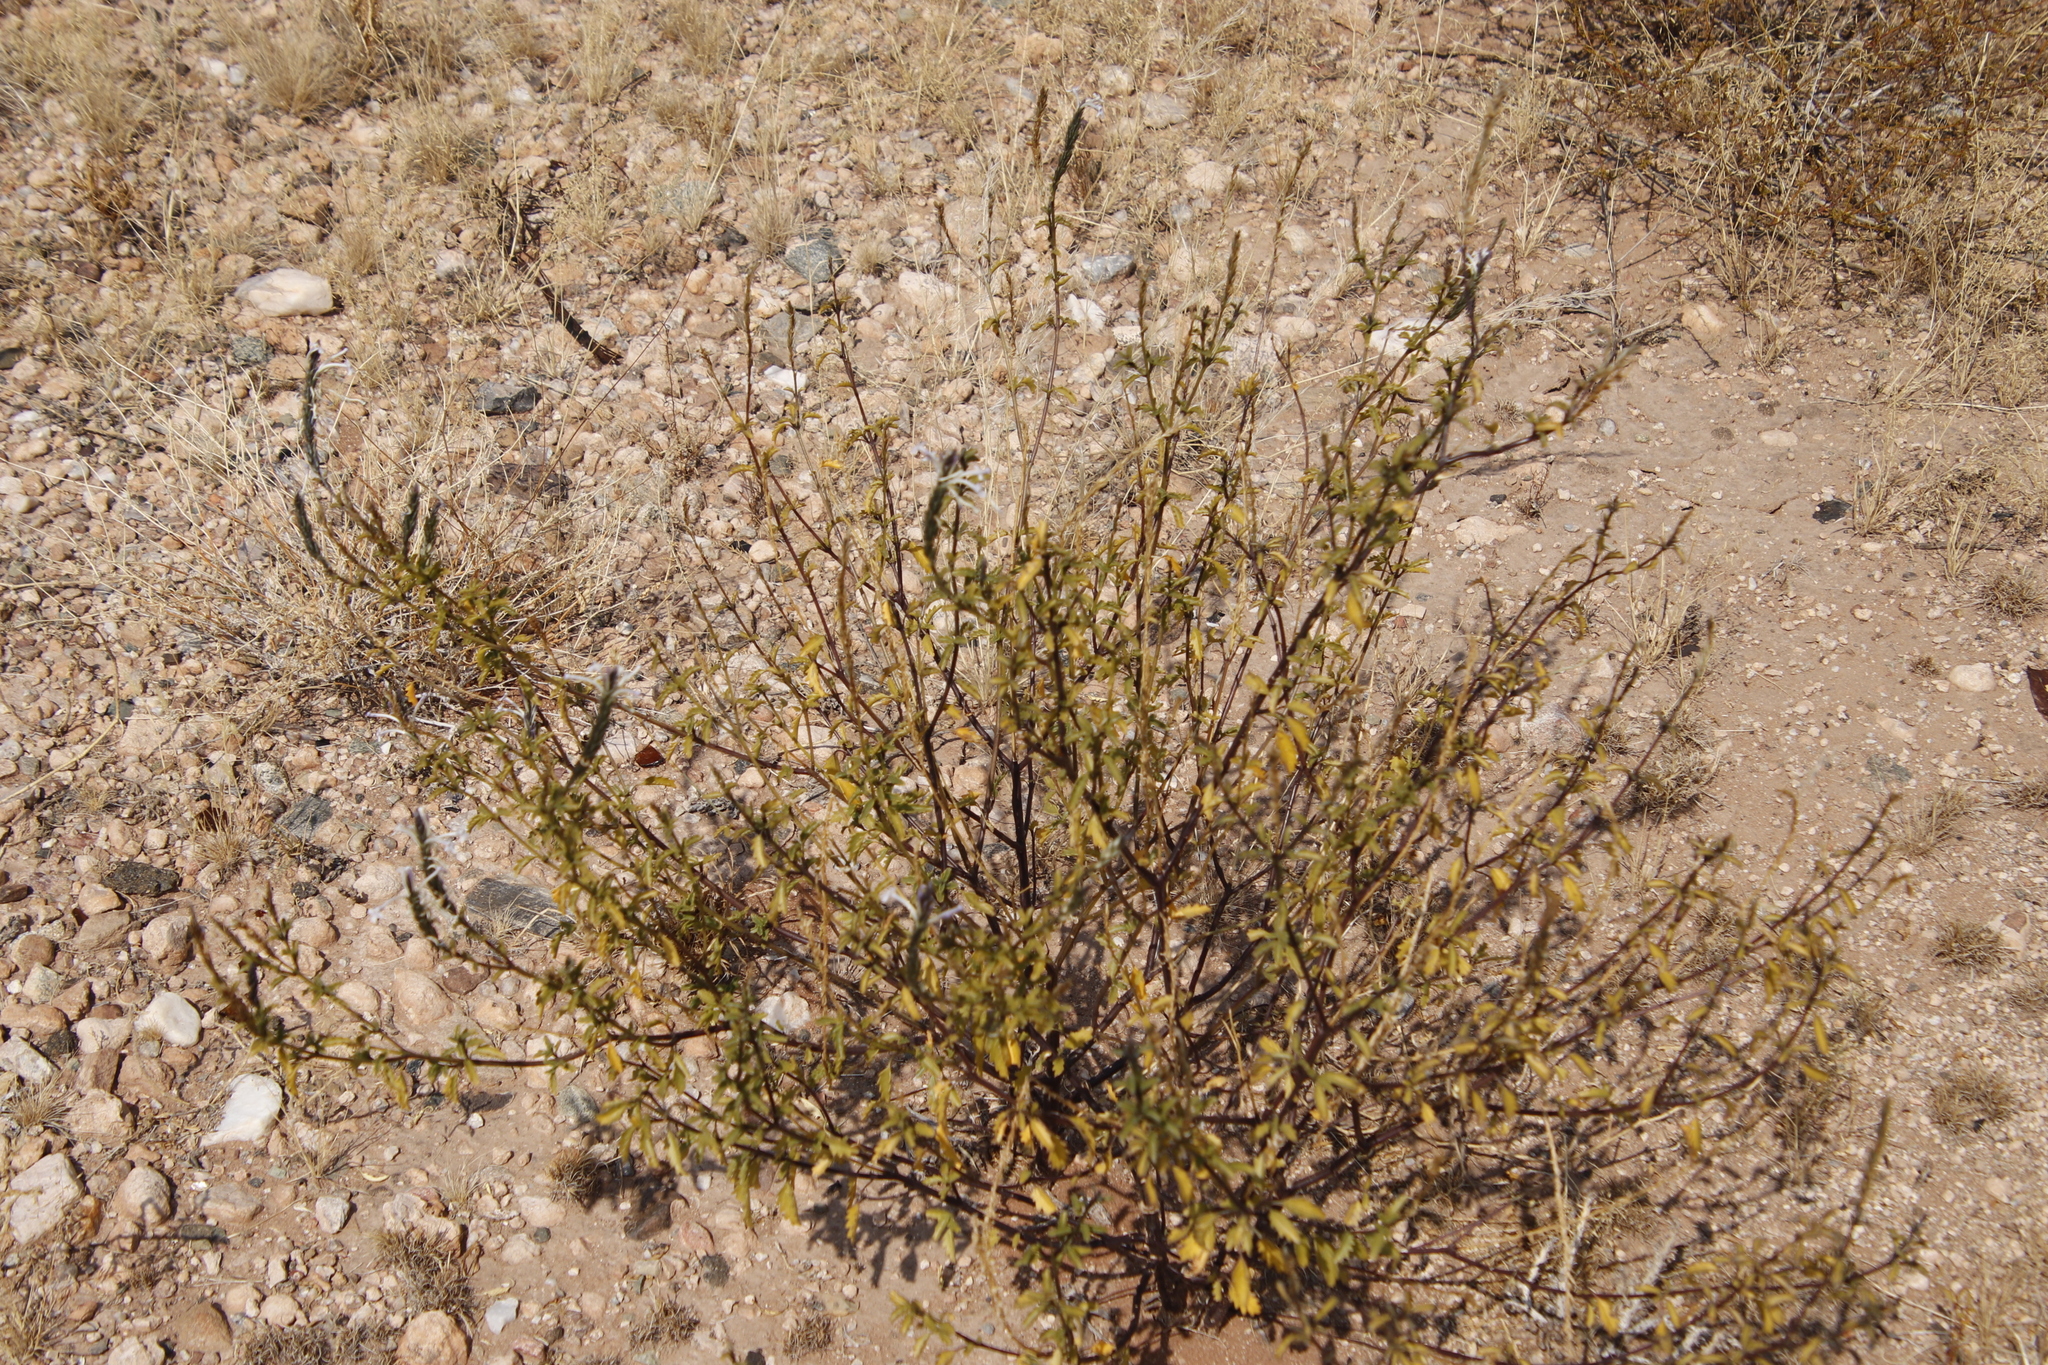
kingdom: Plantae
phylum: Tracheophyta
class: Magnoliopsida
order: Lamiales
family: Verbenaceae
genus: Chascanum
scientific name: Chascanum garipense
